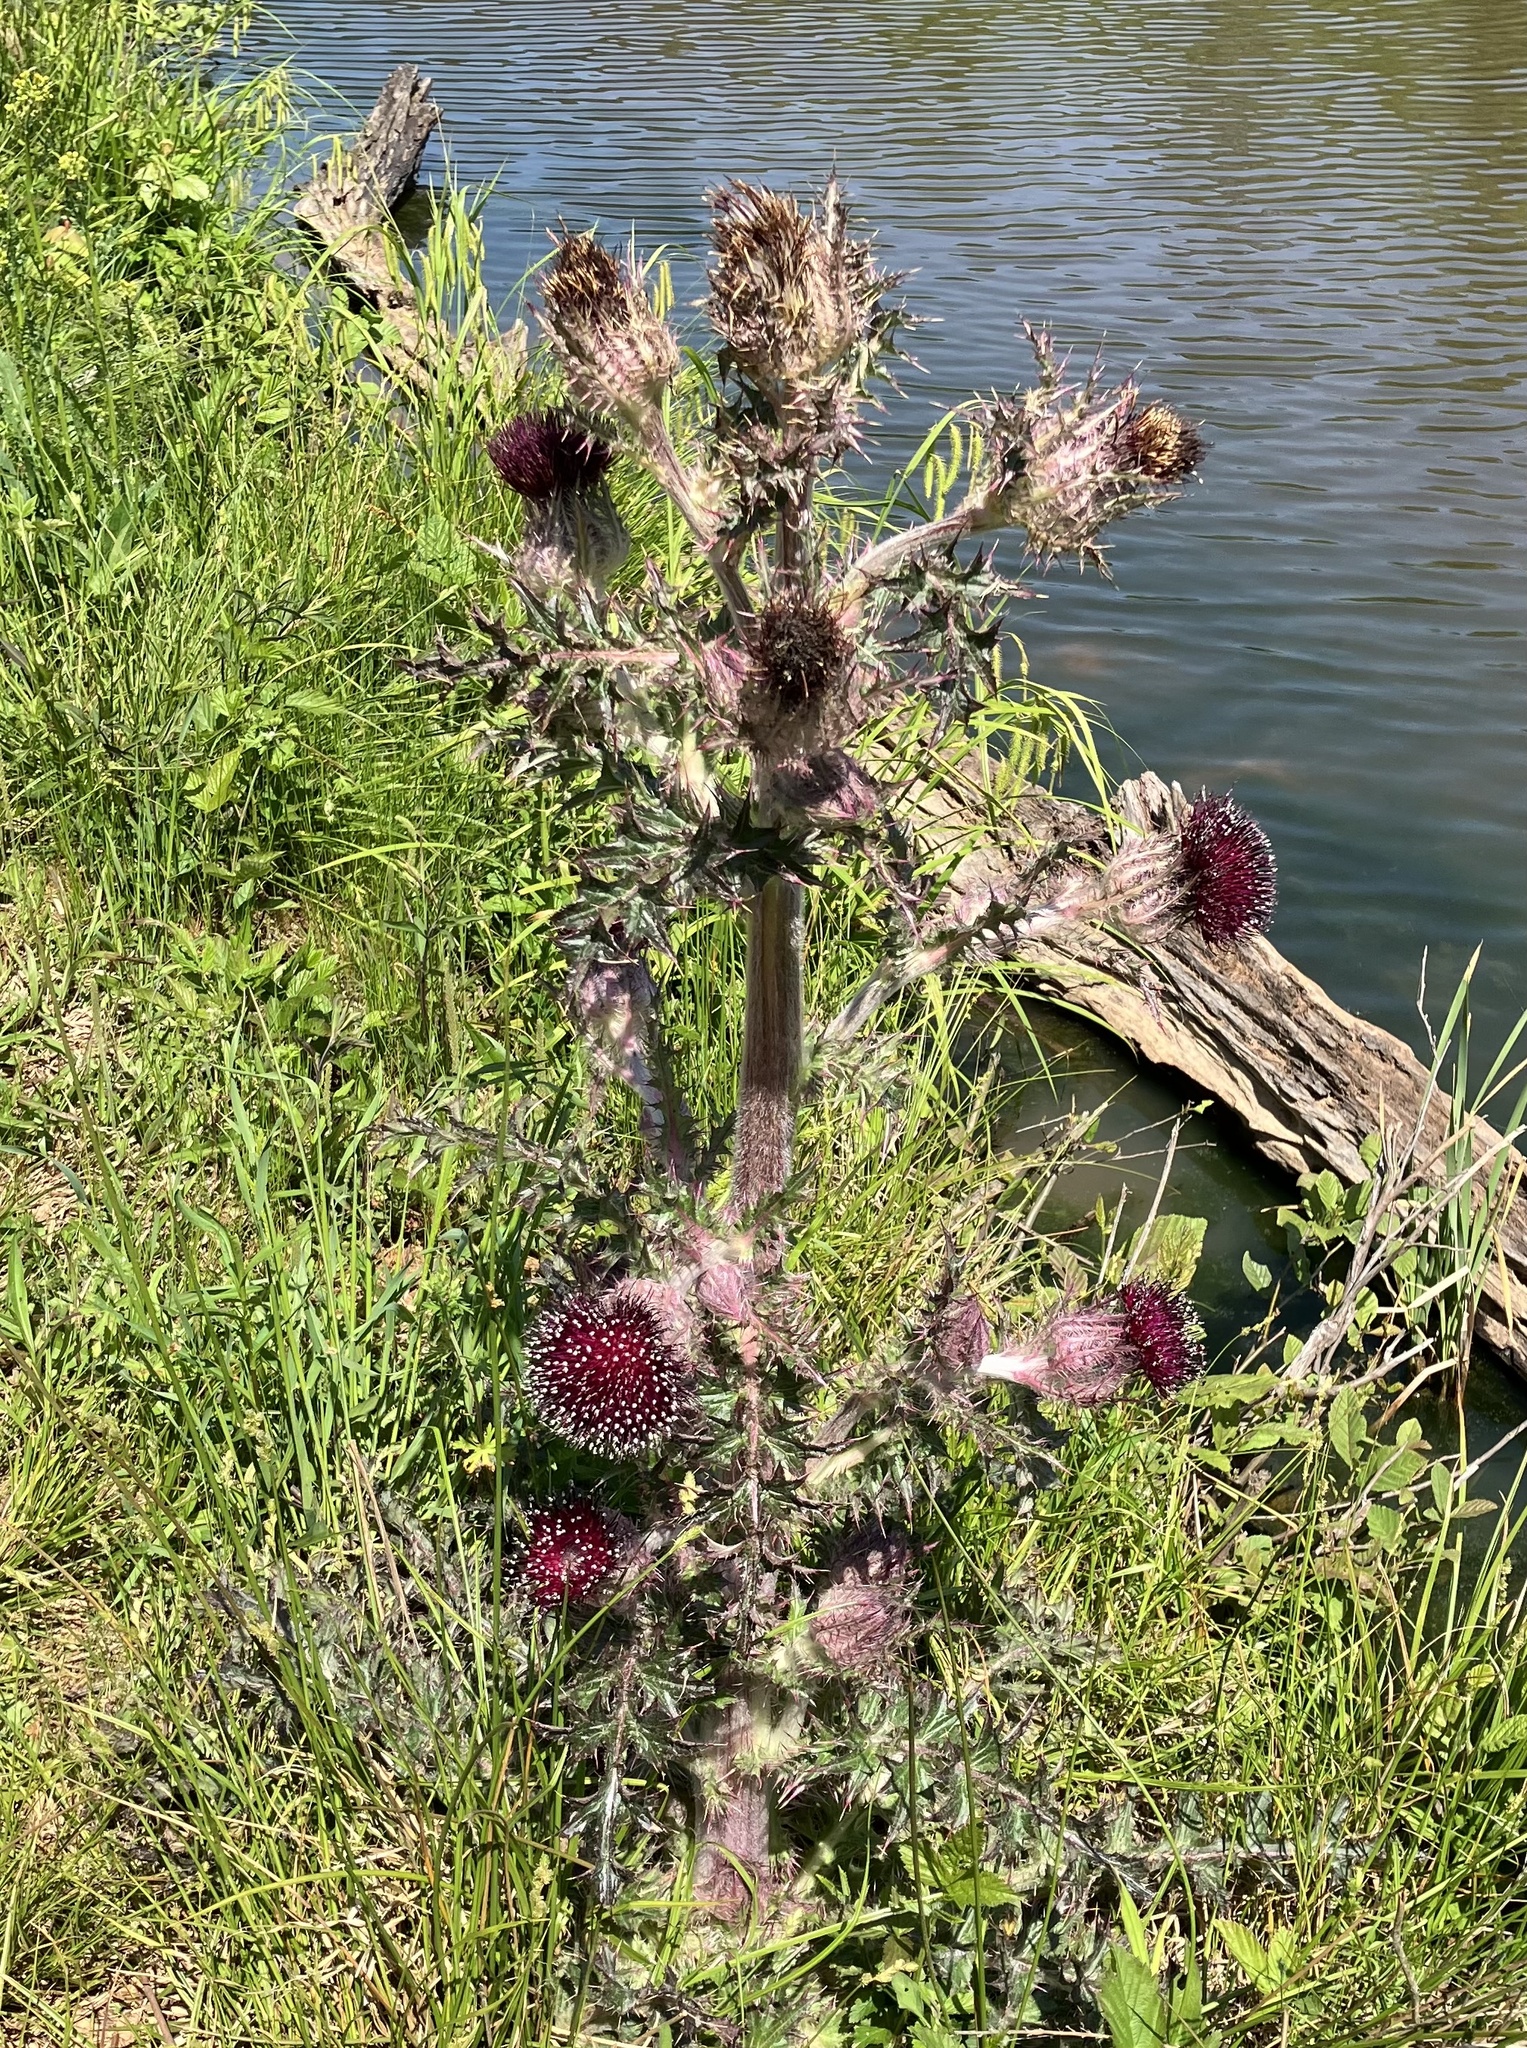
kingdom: Plantae
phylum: Tracheophyta
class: Magnoliopsida
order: Asterales
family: Asteraceae
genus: Cirsium
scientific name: Cirsium horridulum
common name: Bristly thistle
